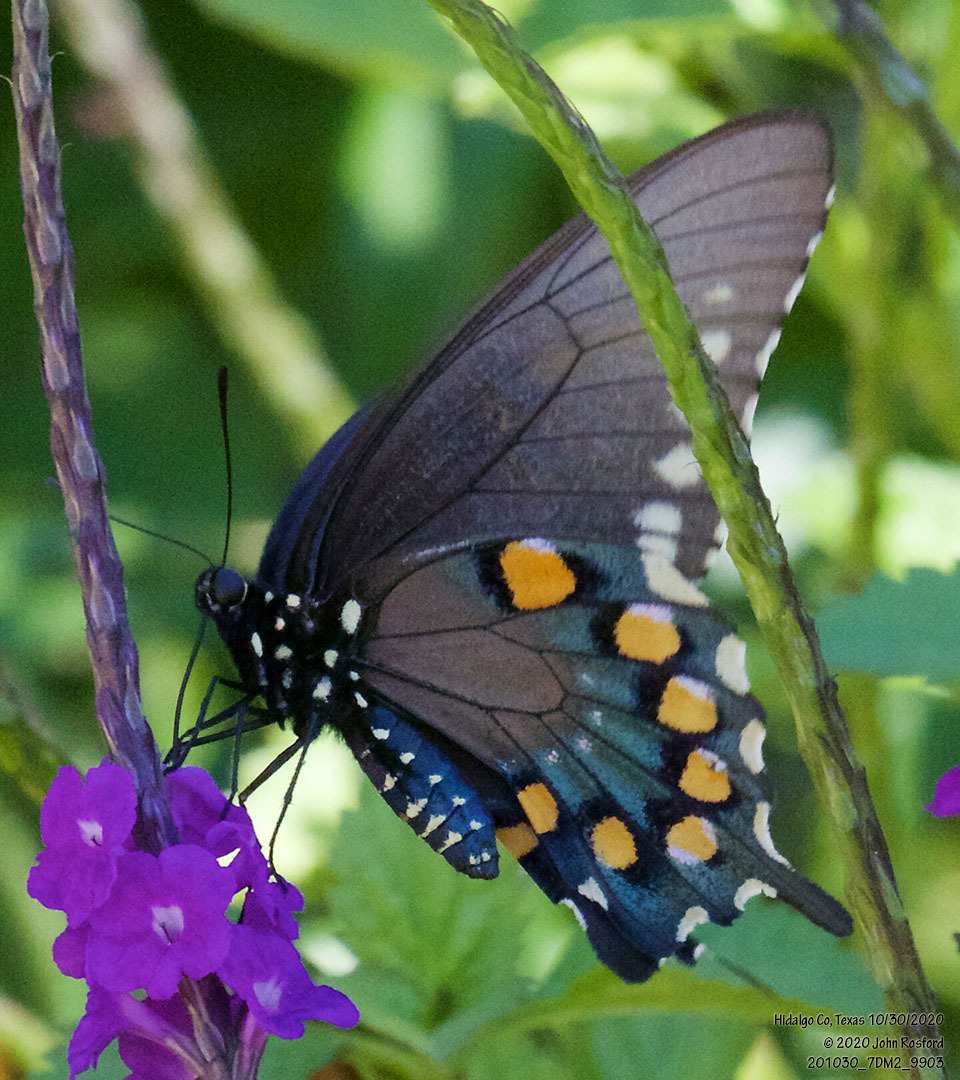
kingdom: Animalia
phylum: Arthropoda
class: Insecta
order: Lepidoptera
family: Papilionidae
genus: Battus
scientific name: Battus philenor
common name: Pipevine swallowtail
